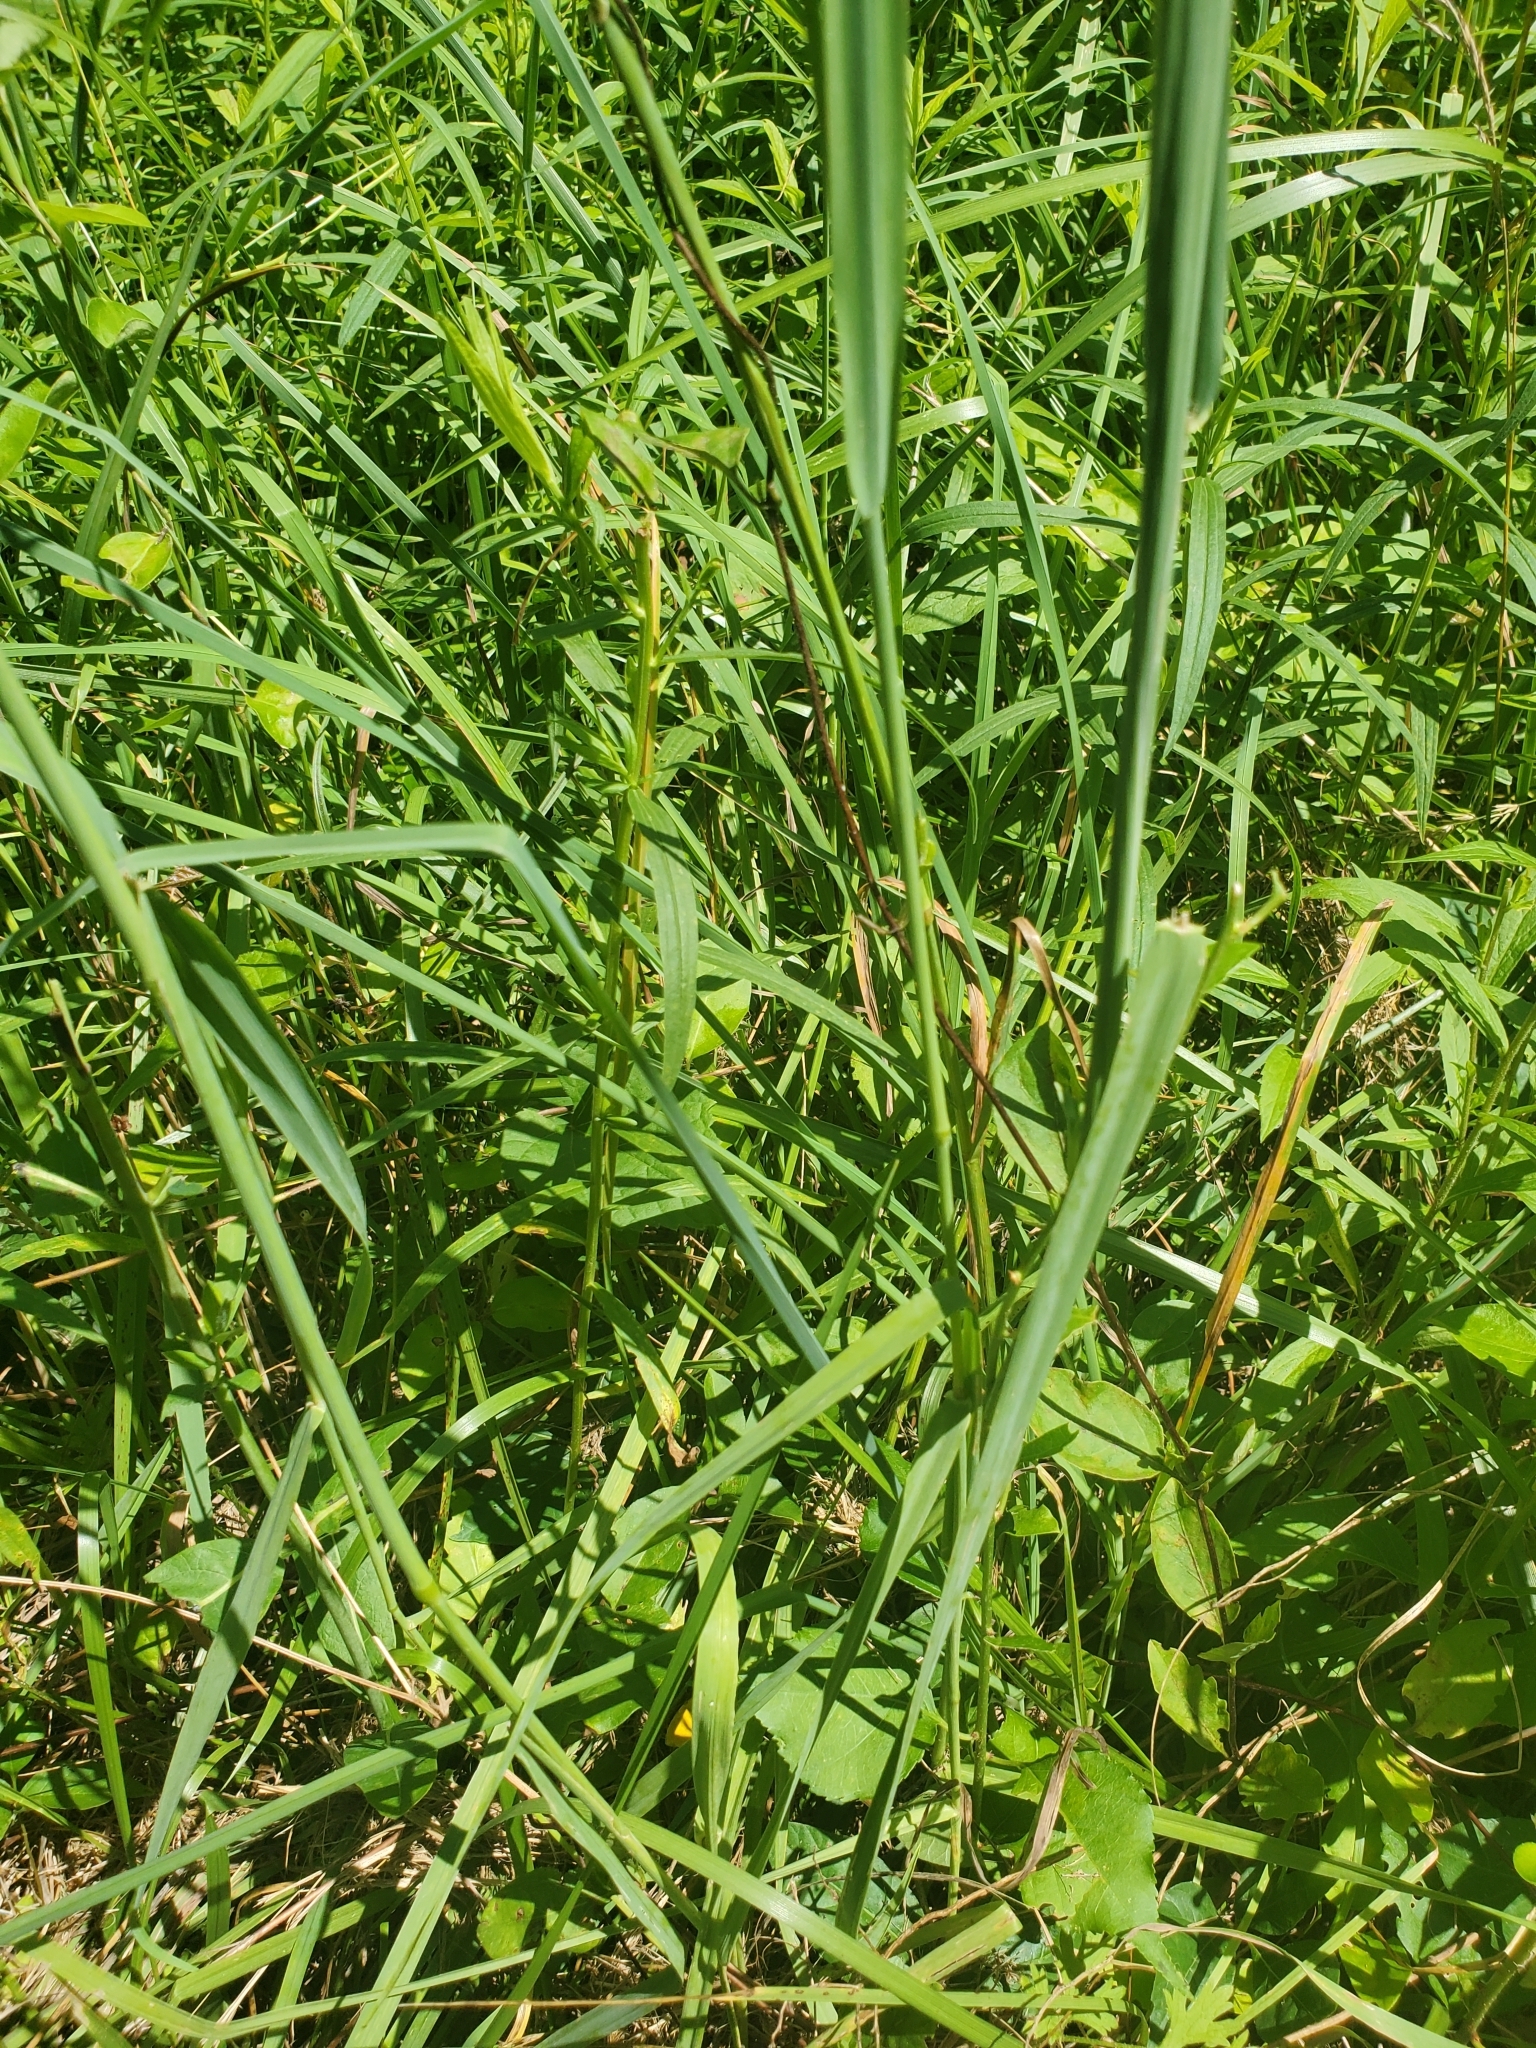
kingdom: Plantae
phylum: Tracheophyta
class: Liliopsida
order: Poales
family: Poaceae
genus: Dactylis
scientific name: Dactylis glomerata
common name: Orchardgrass
